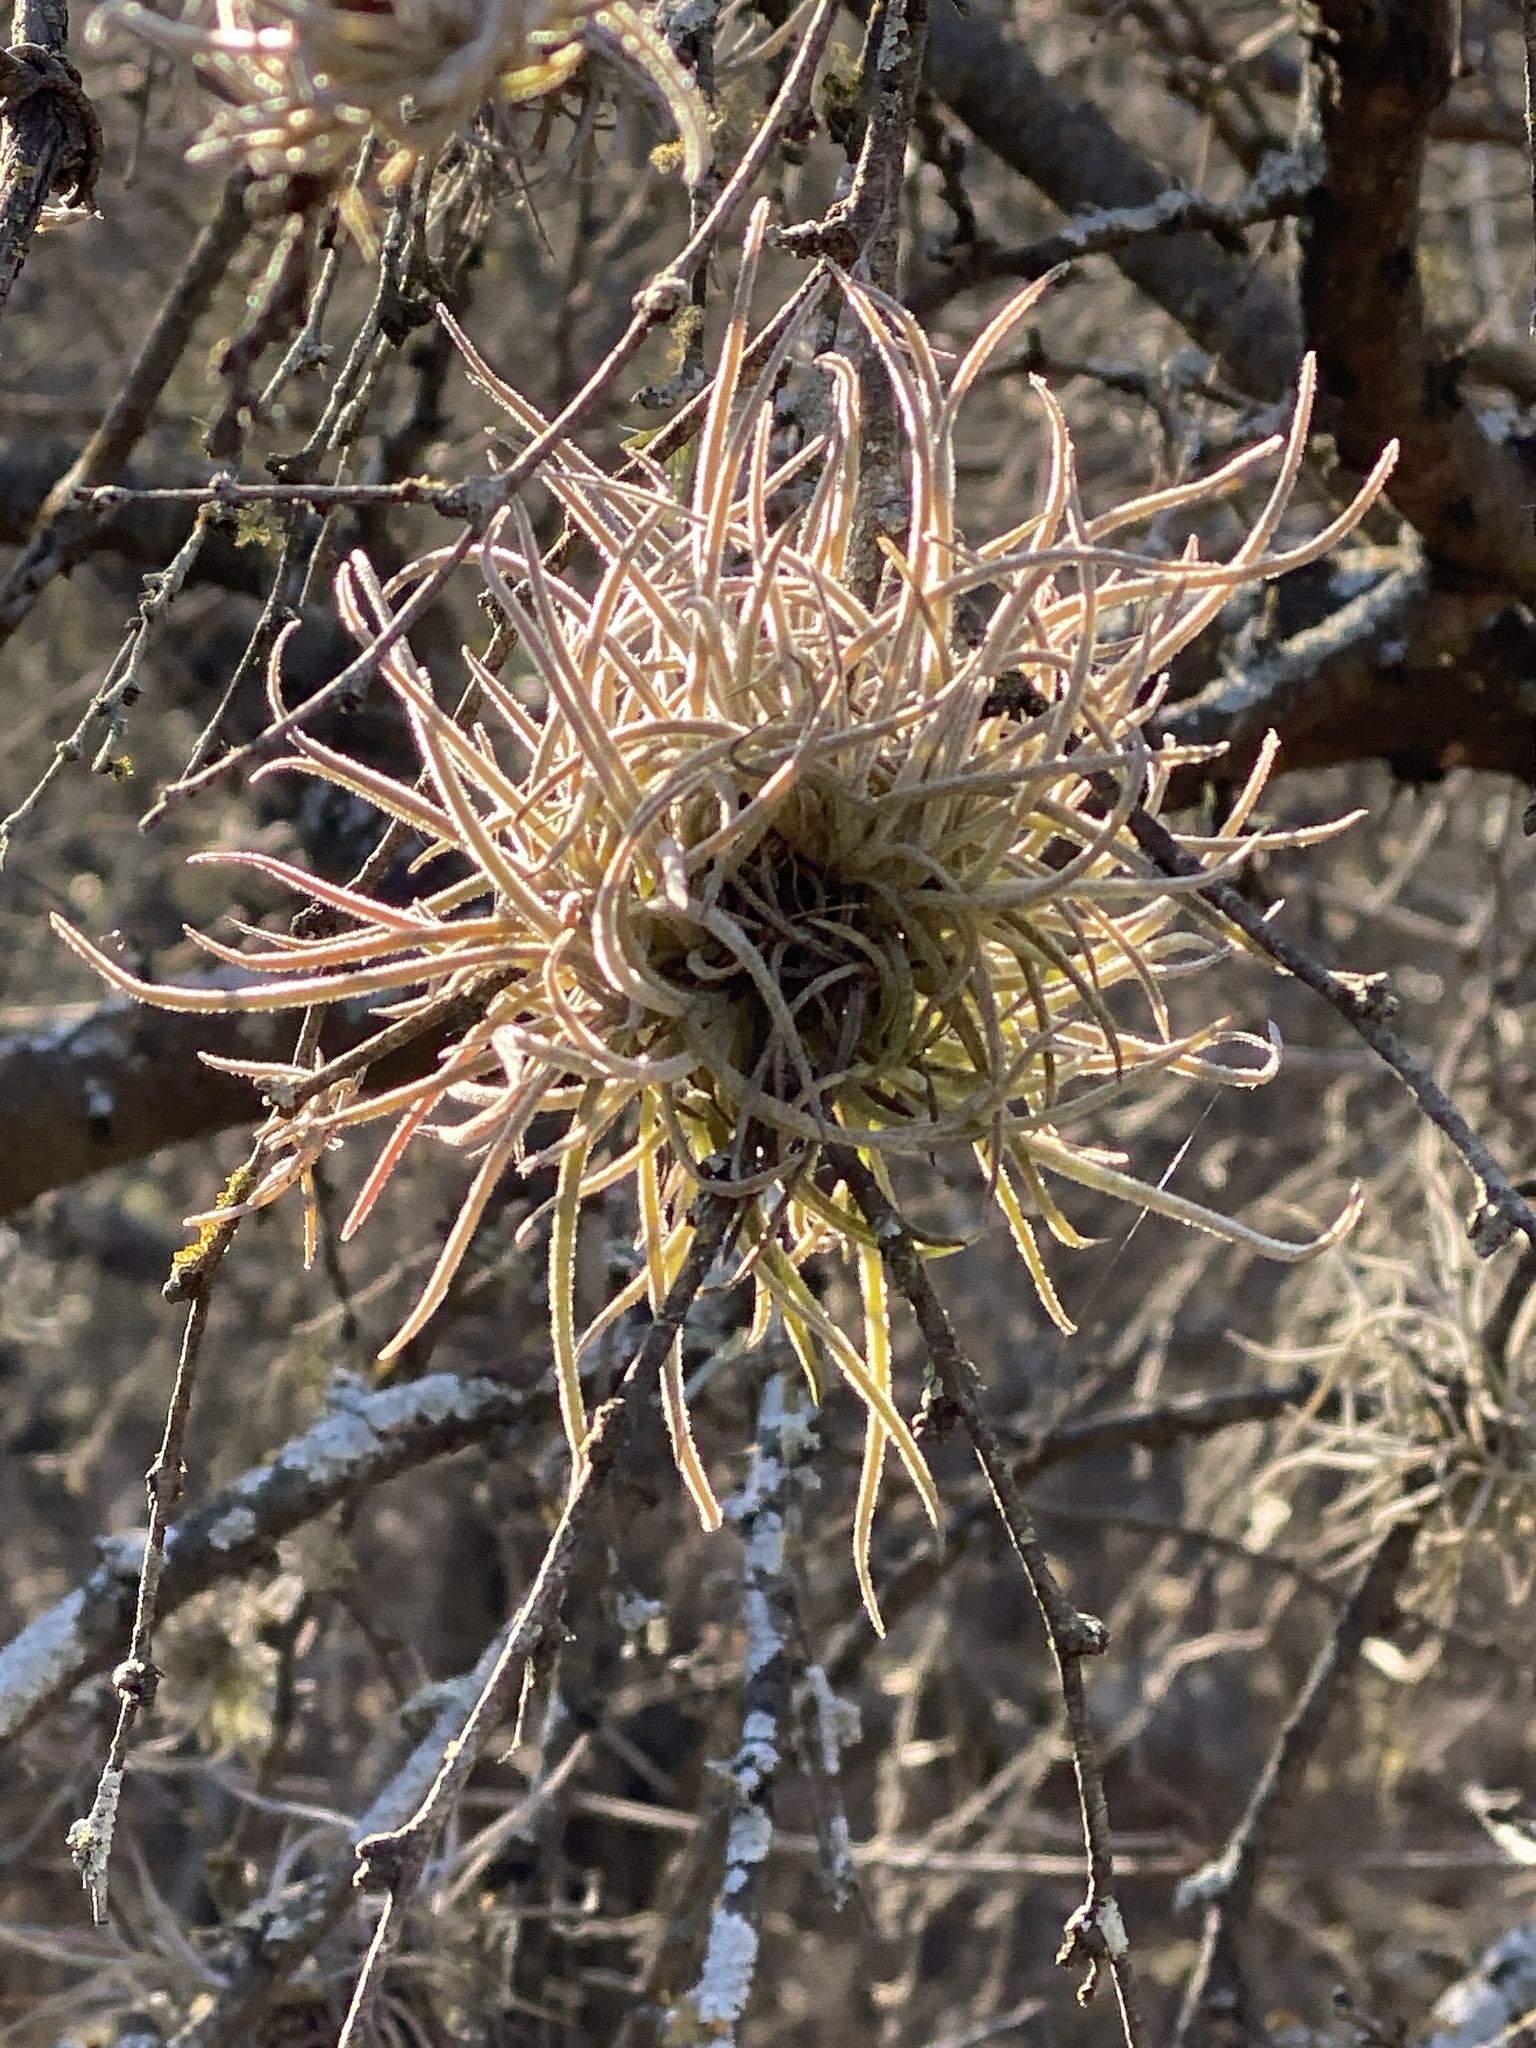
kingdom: Plantae
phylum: Tracheophyta
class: Liliopsida
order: Poales
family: Bromeliaceae
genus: Tillandsia
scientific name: Tillandsia recurvata
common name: Small ballmoss
